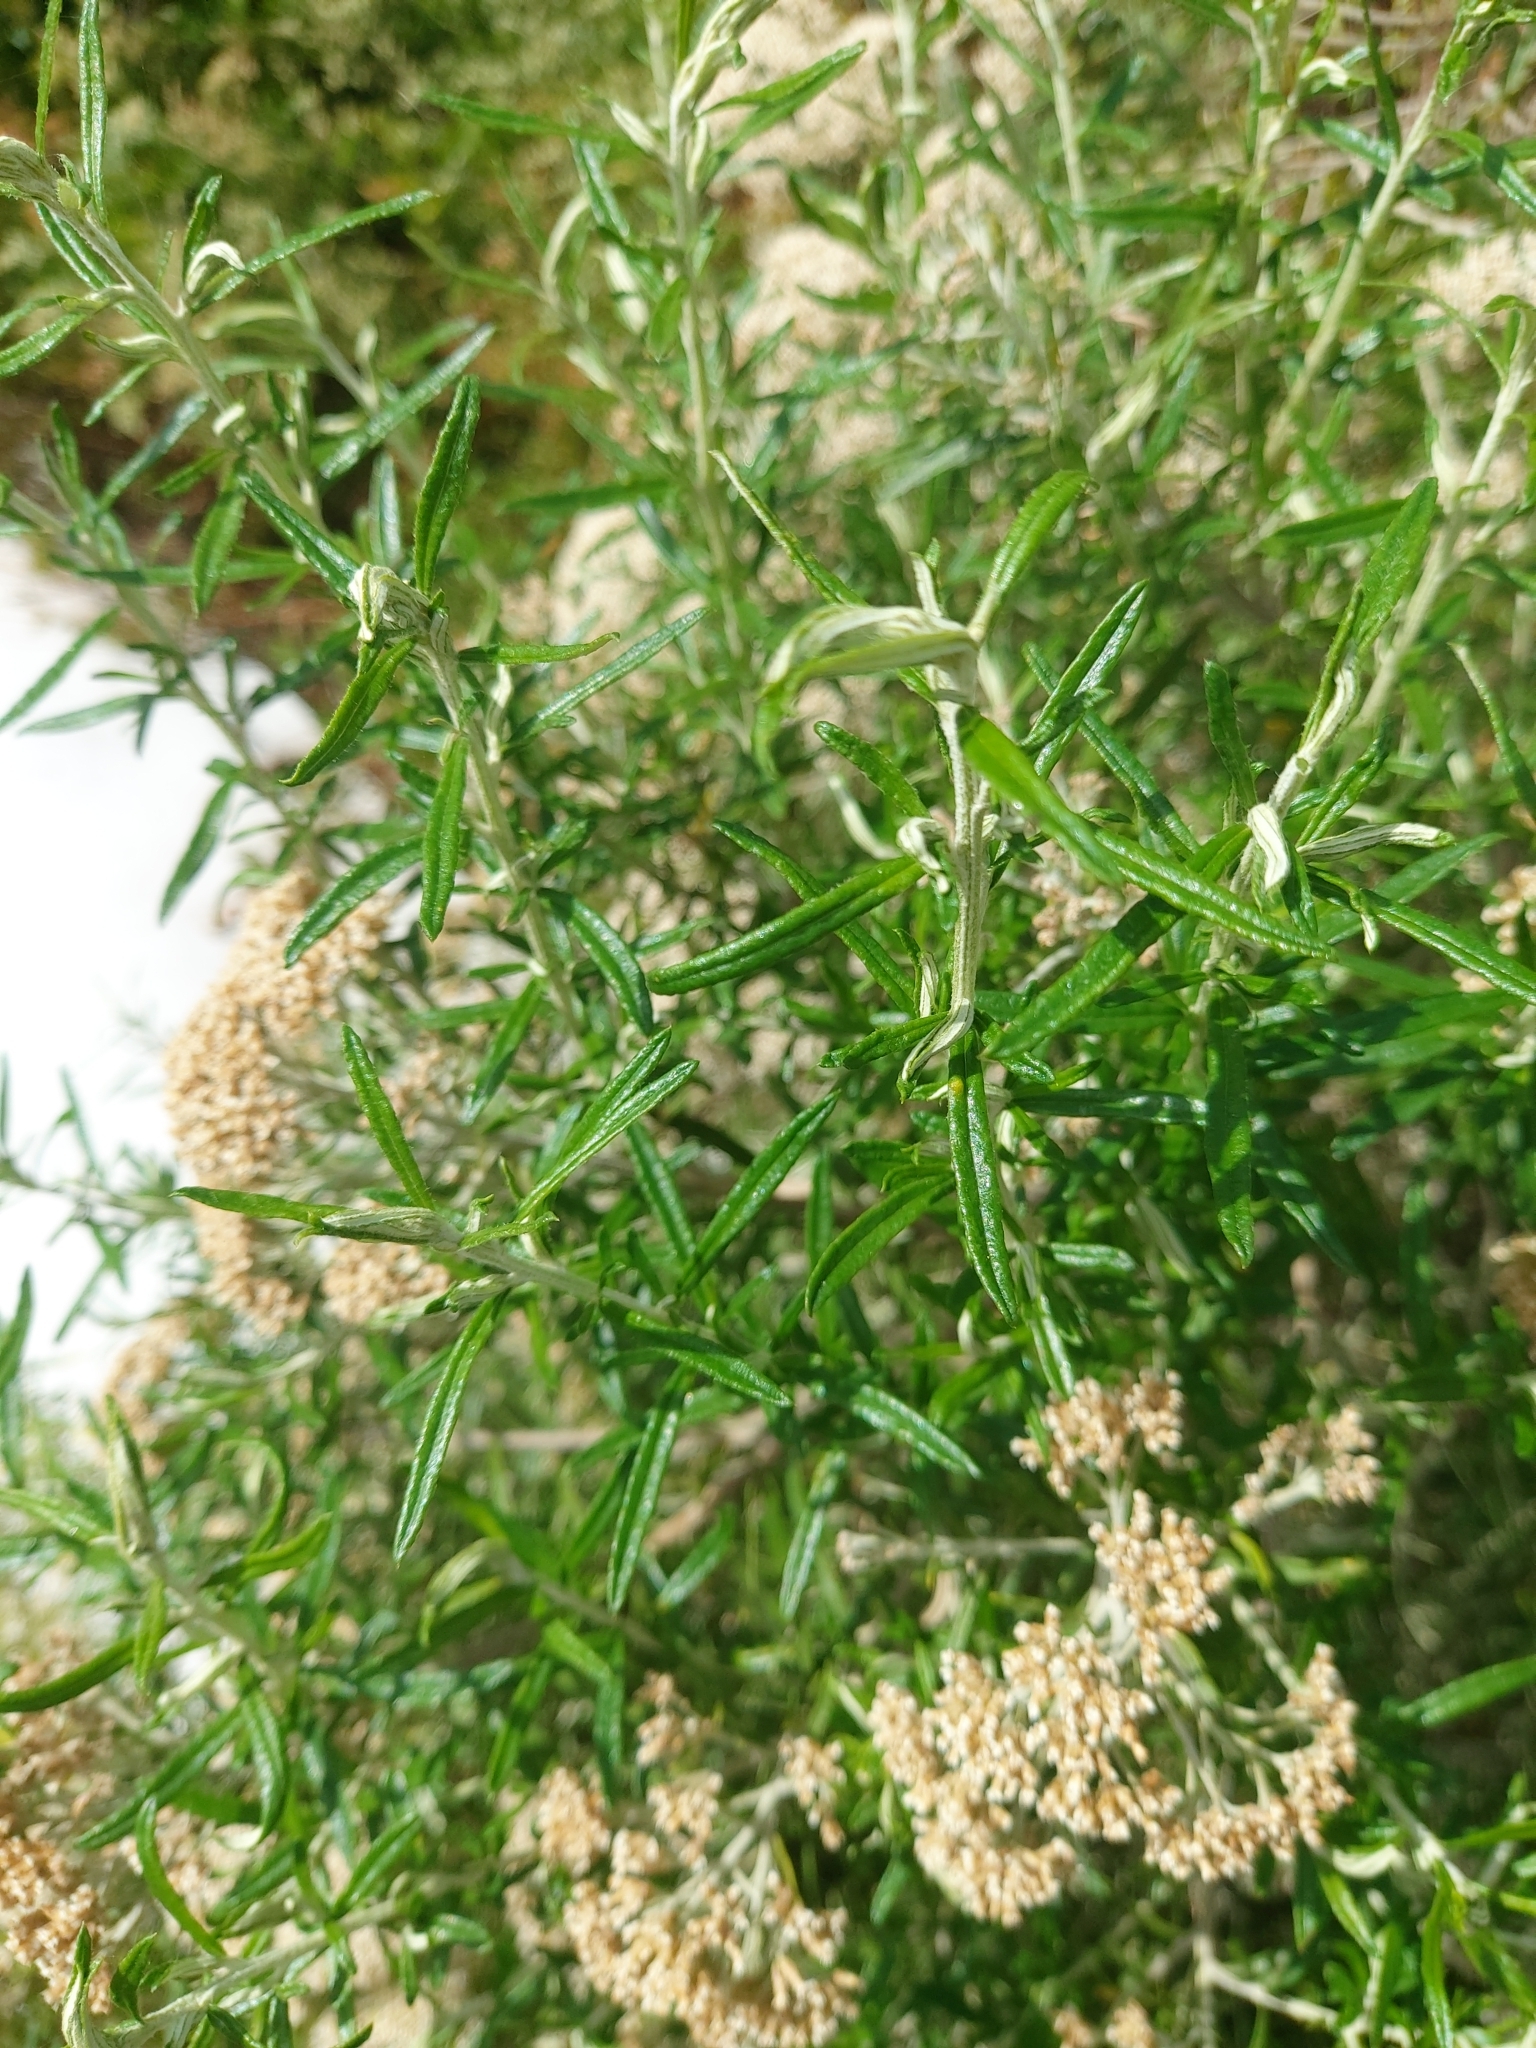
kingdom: Plantae
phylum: Tracheophyta
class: Magnoliopsida
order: Asterales
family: Asteraceae
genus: Ozothamnus
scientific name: Ozothamnus ferrugineus
